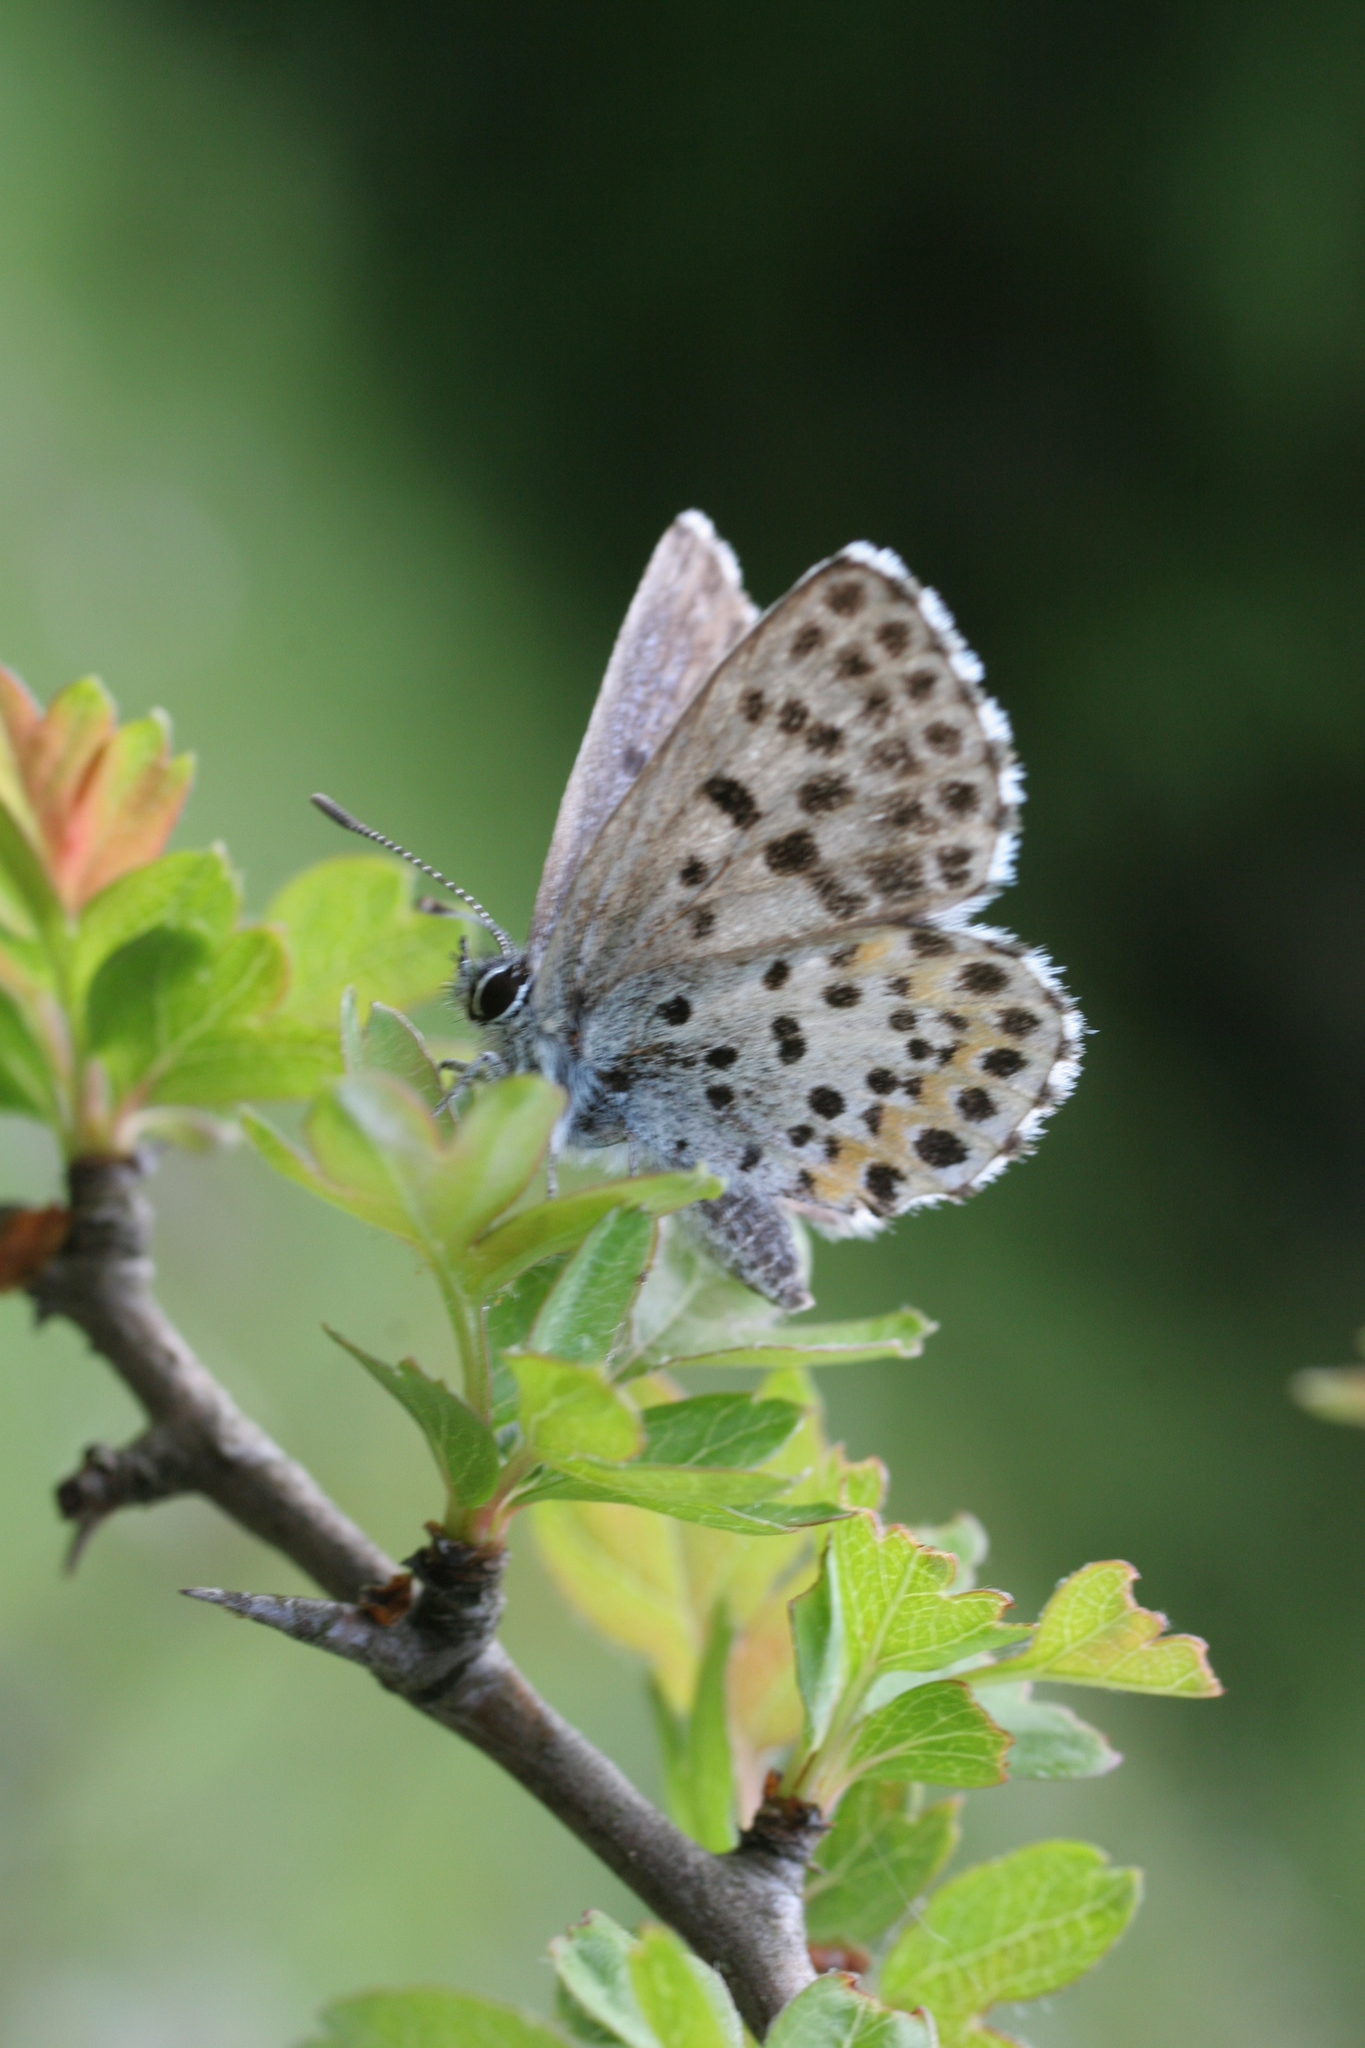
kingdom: Animalia
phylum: Arthropoda
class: Insecta
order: Lepidoptera
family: Lycaenidae
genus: Scolitantides
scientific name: Scolitantides orion
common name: Chequered blue
